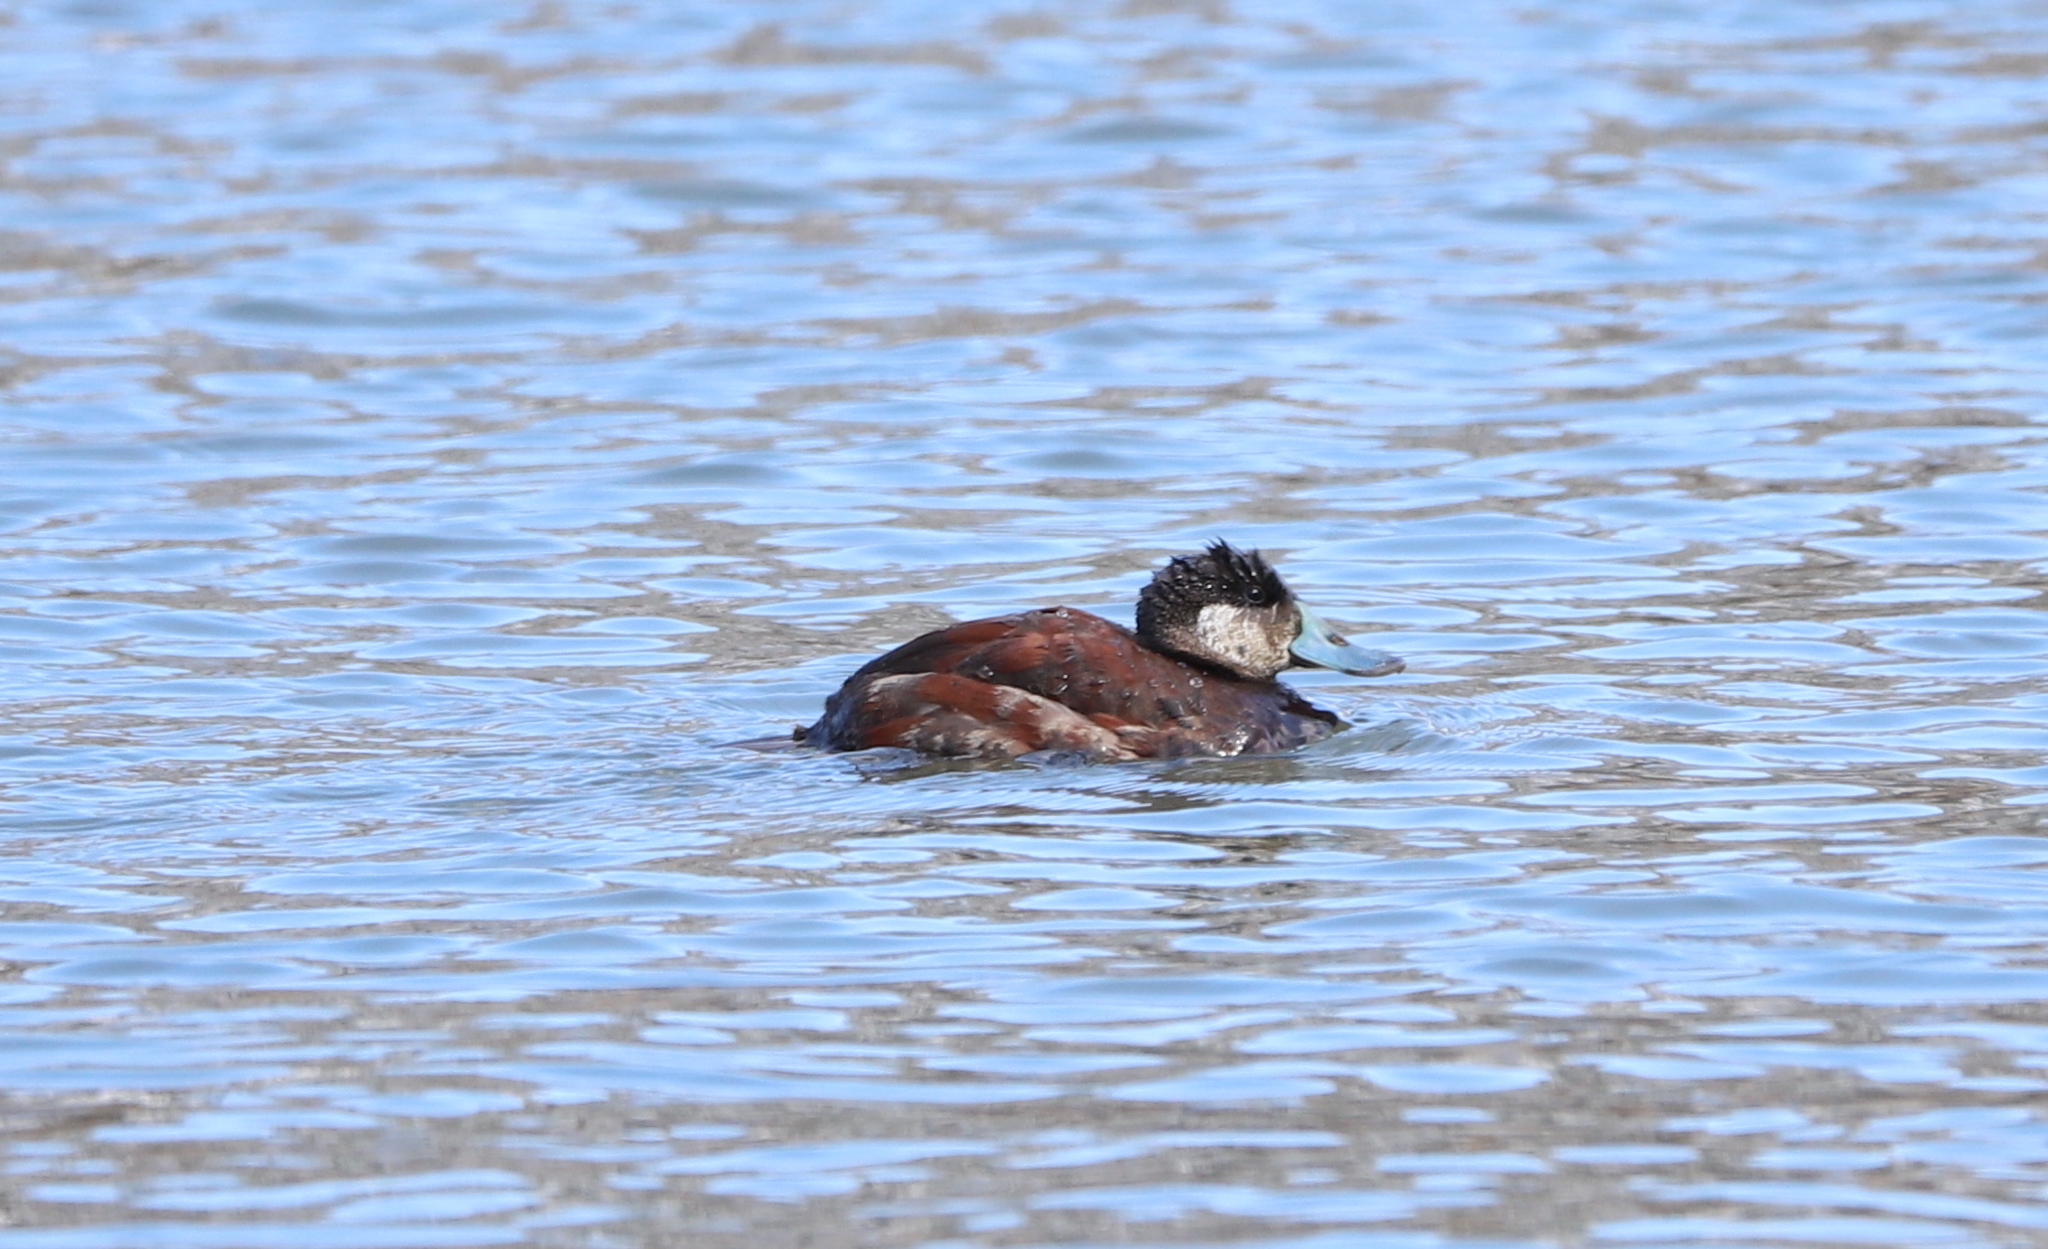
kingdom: Animalia
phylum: Chordata
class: Aves
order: Anseriformes
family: Anatidae
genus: Oxyura
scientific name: Oxyura jamaicensis
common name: Ruddy duck
